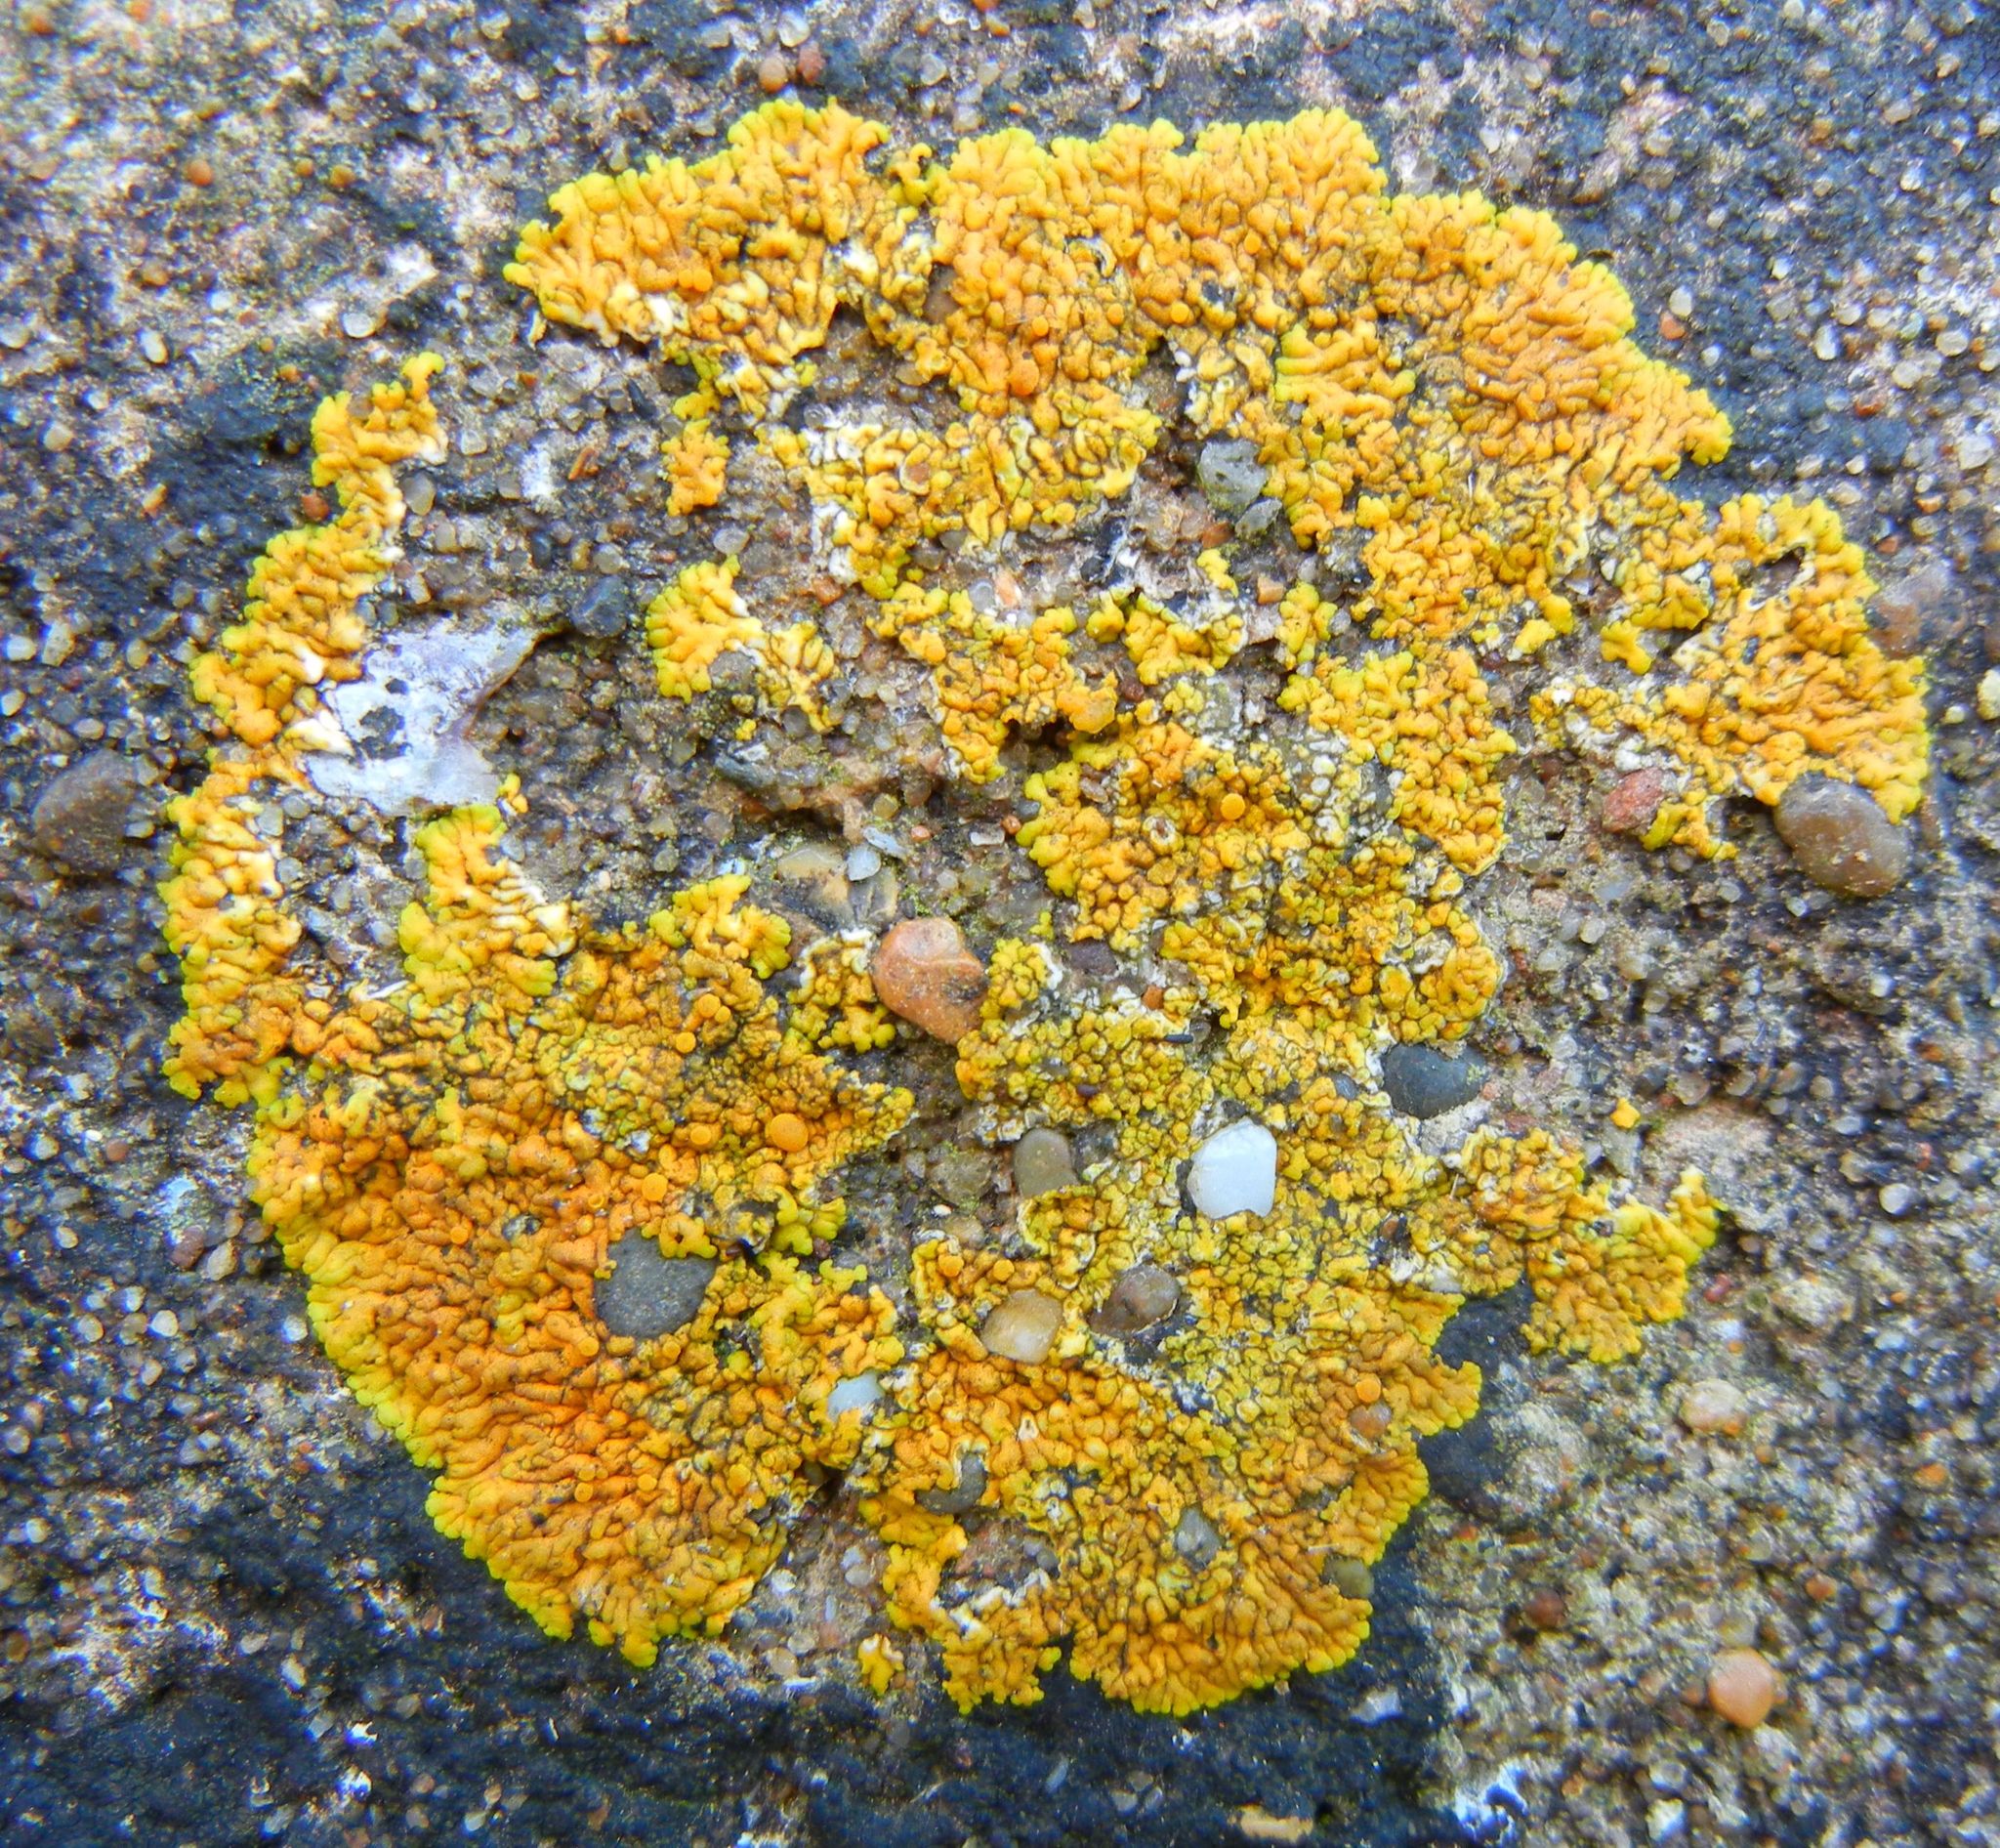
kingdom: Fungi
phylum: Ascomycota
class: Lecanoromycetes
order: Teloschistales
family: Teloschistaceae
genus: Variospora
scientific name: Variospora flavescens
